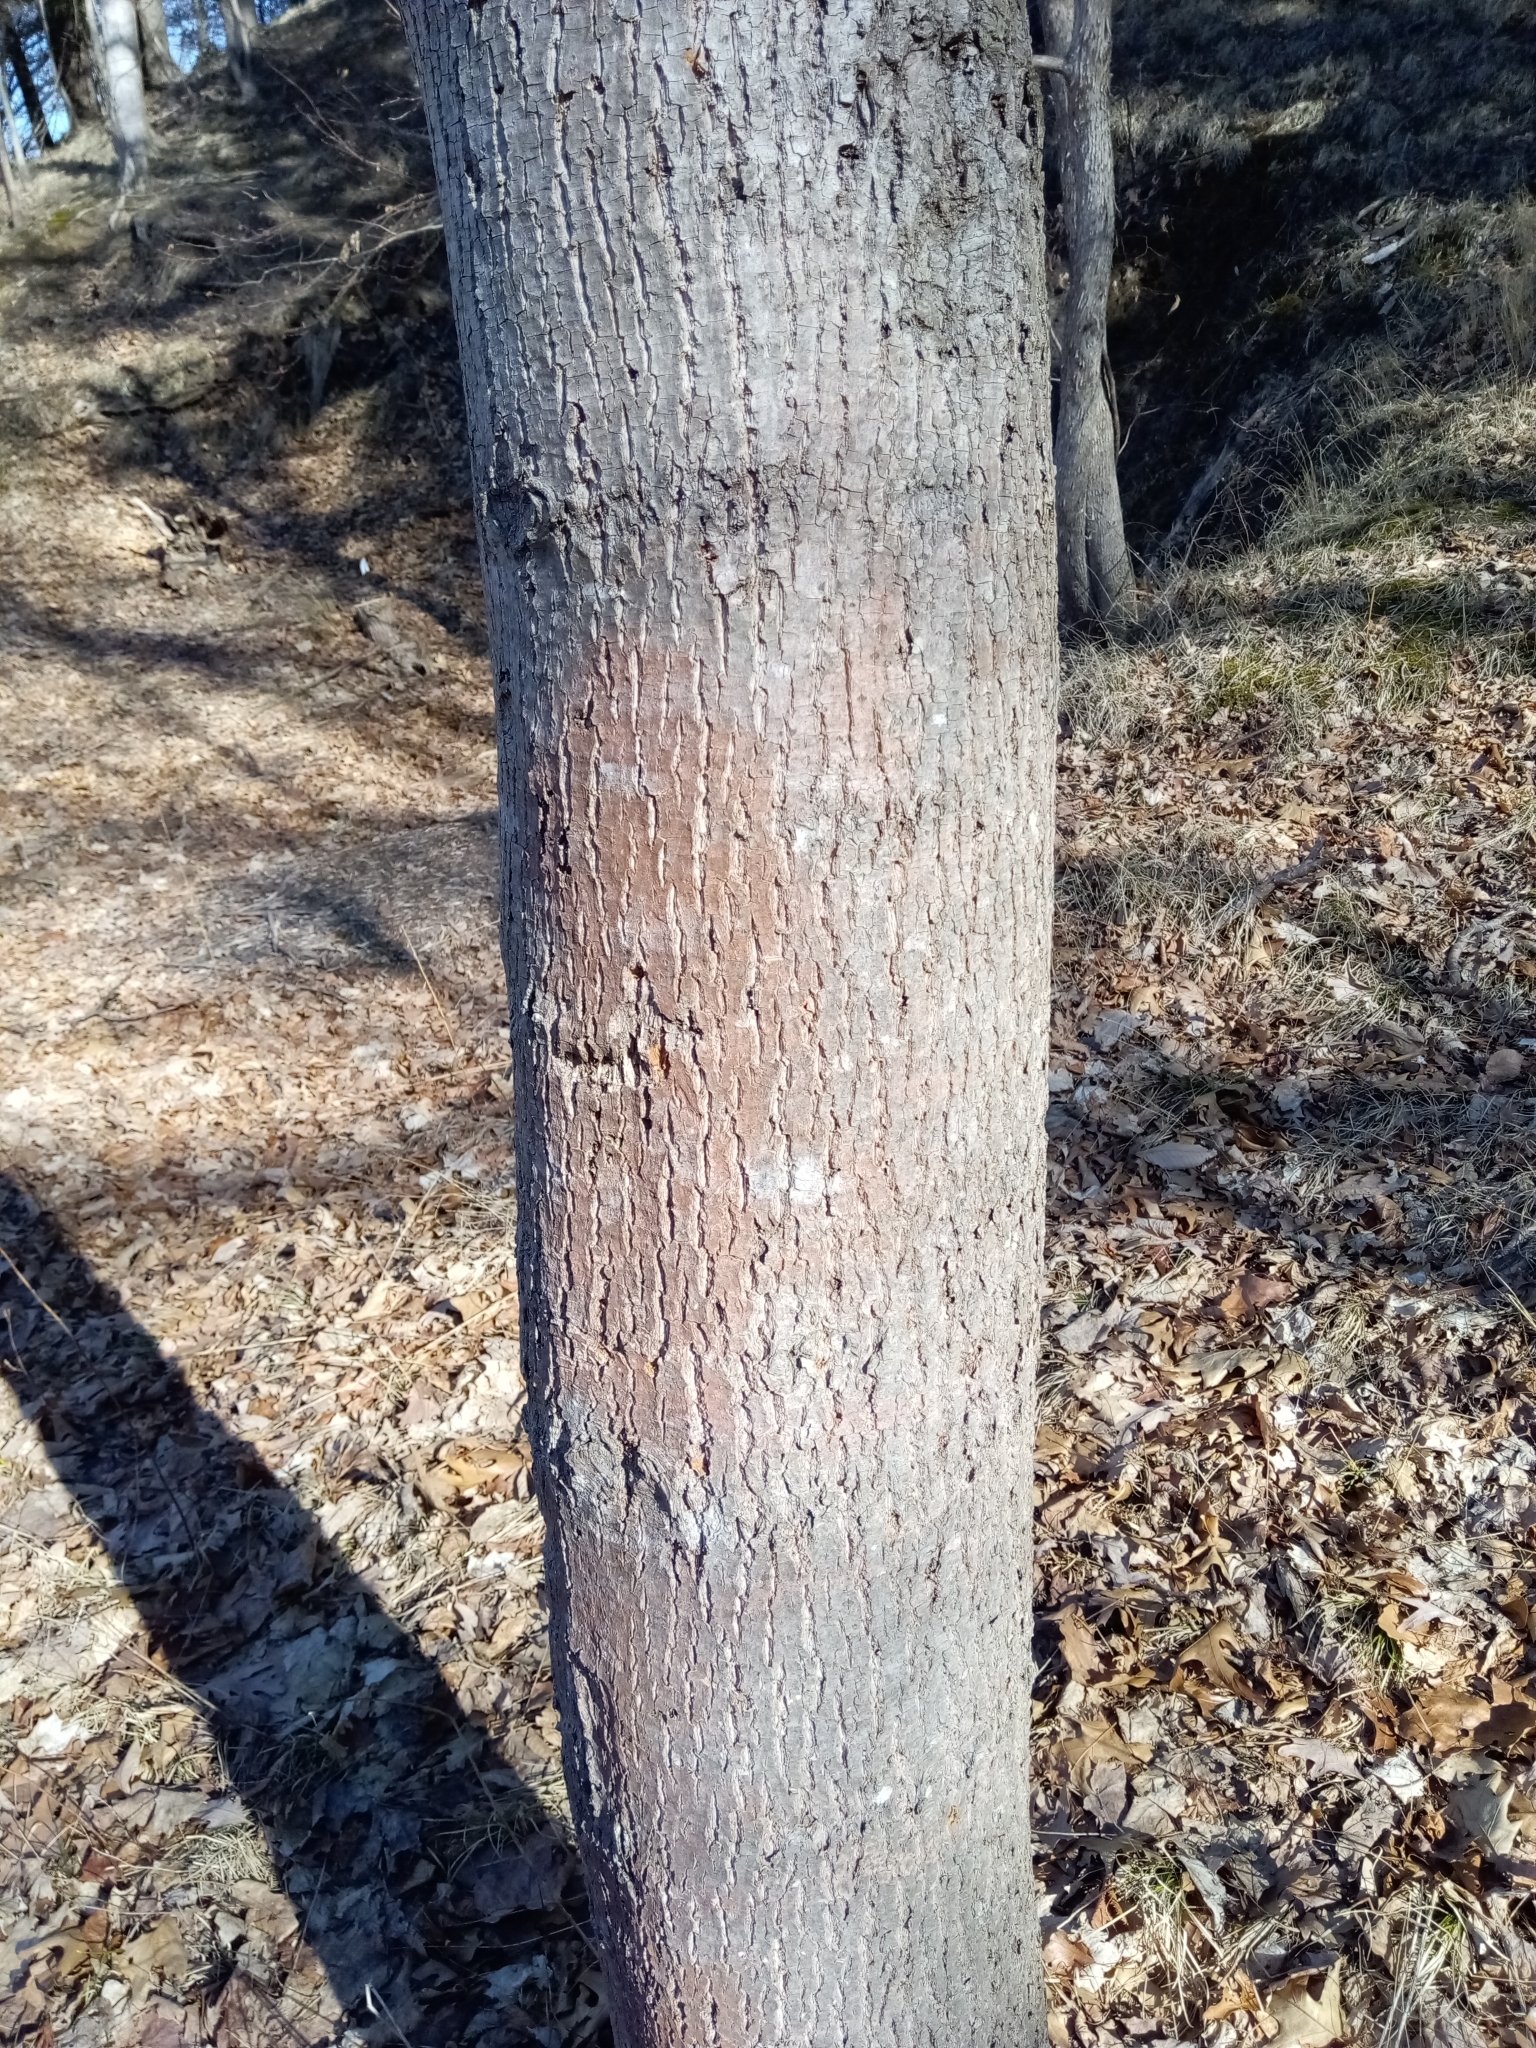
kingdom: Plantae
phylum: Tracheophyta
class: Magnoliopsida
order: Malvales
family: Malvaceae
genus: Tilia
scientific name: Tilia americana
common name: Basswood
